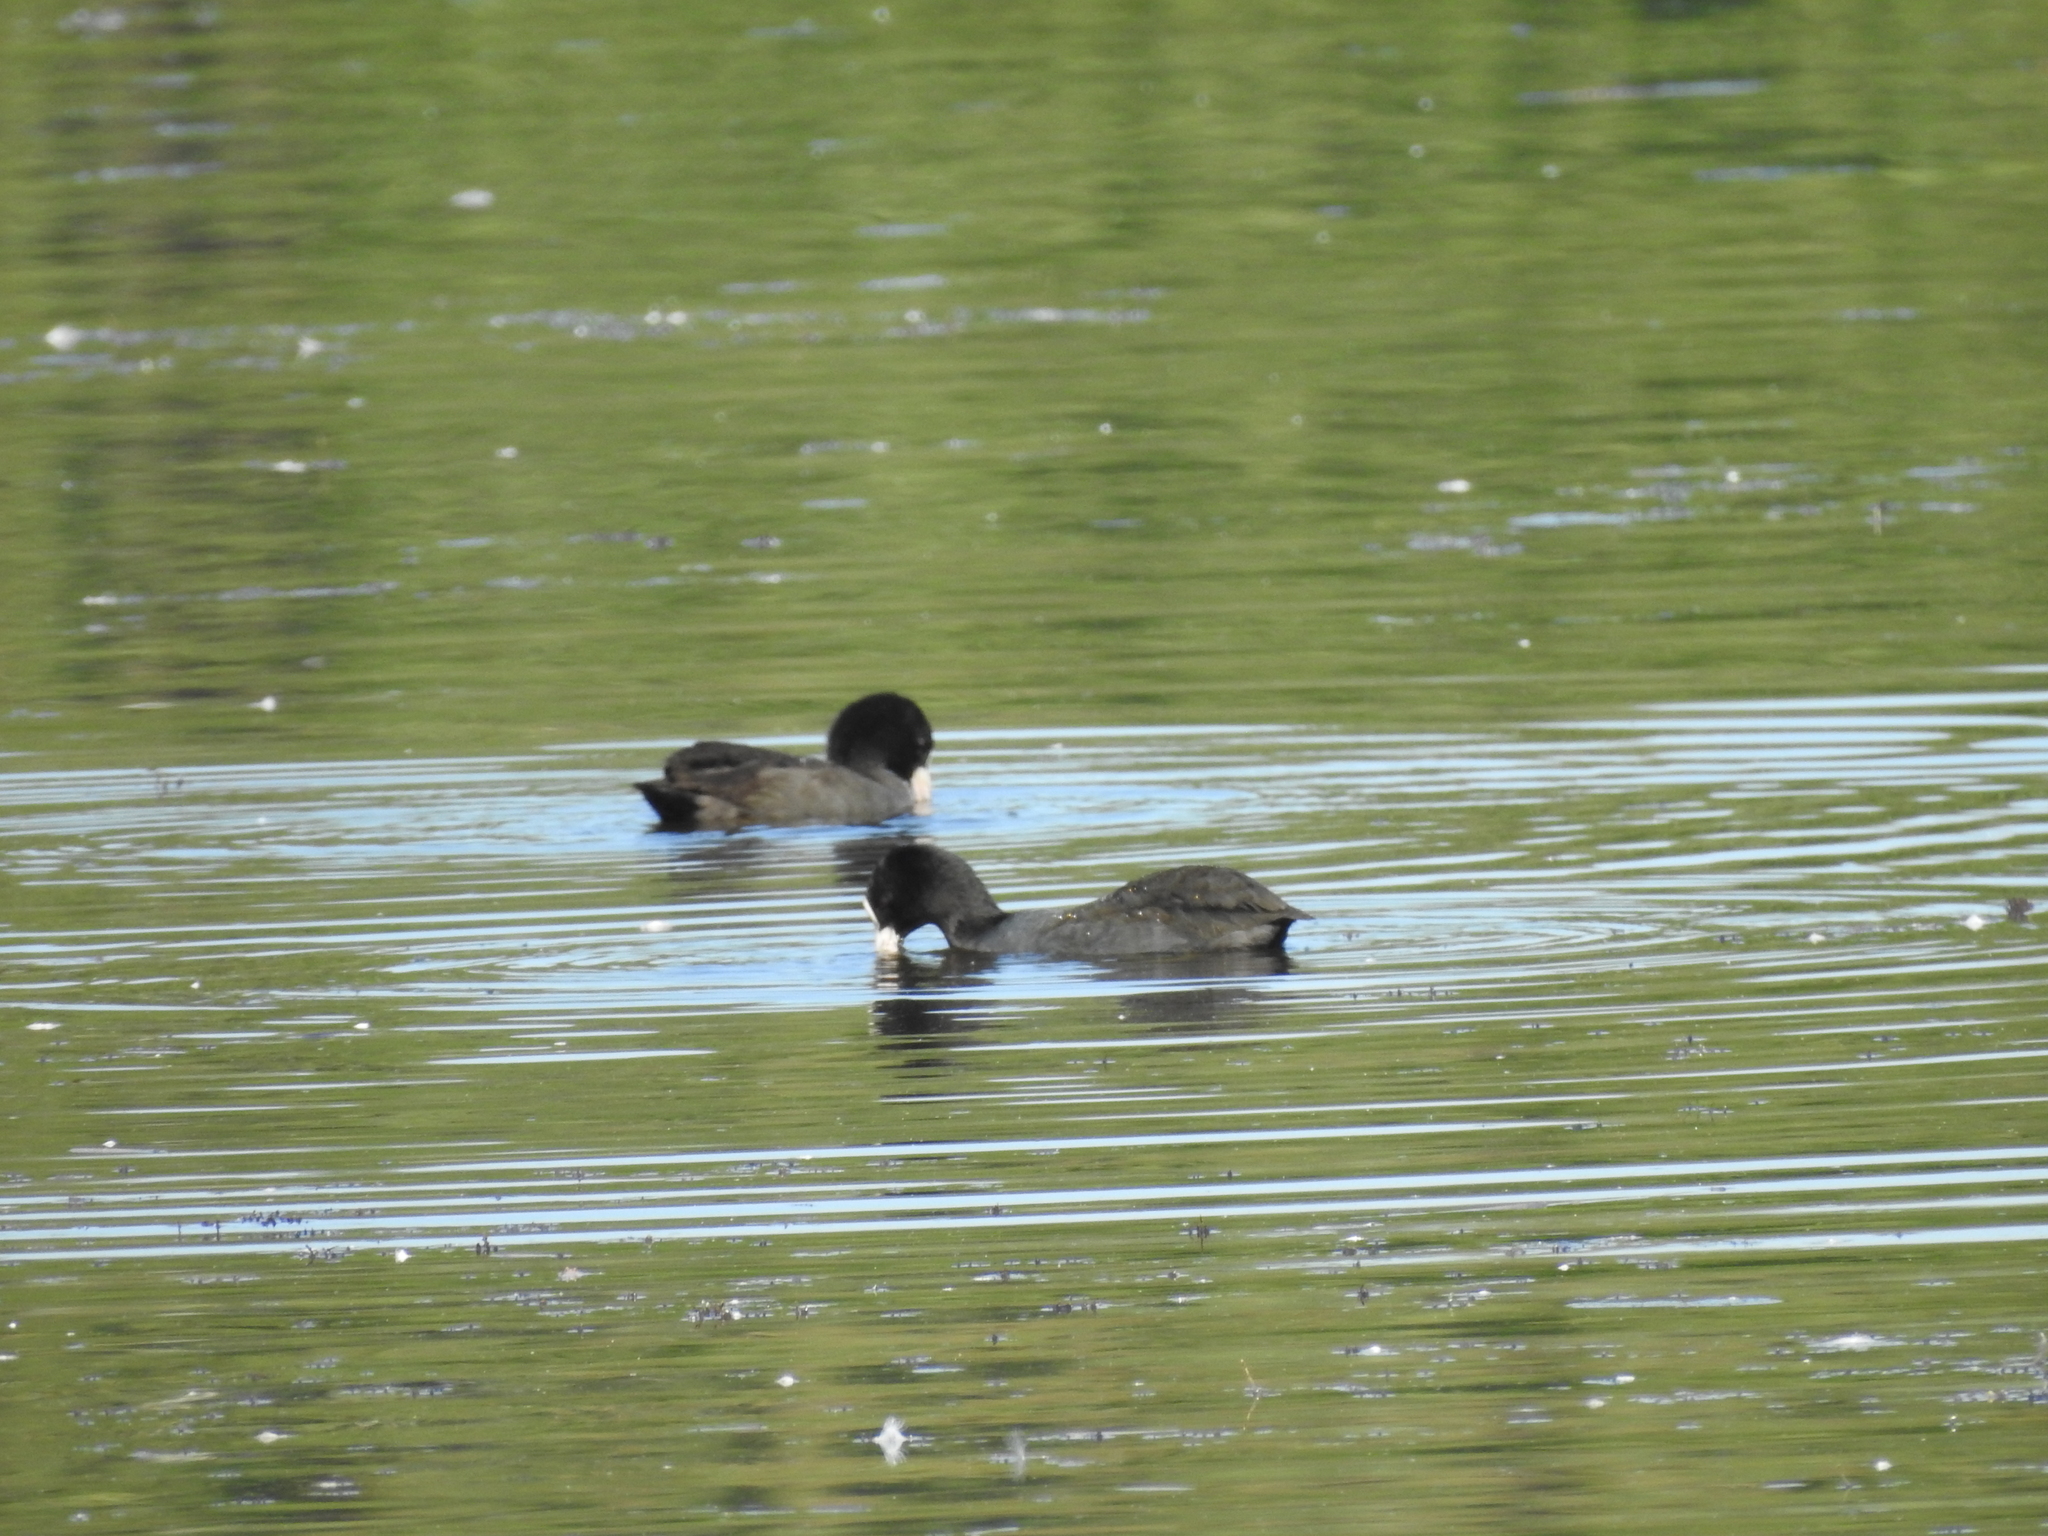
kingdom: Animalia
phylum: Chordata
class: Aves
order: Gruiformes
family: Rallidae
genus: Fulica
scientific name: Fulica atra
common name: Eurasian coot
